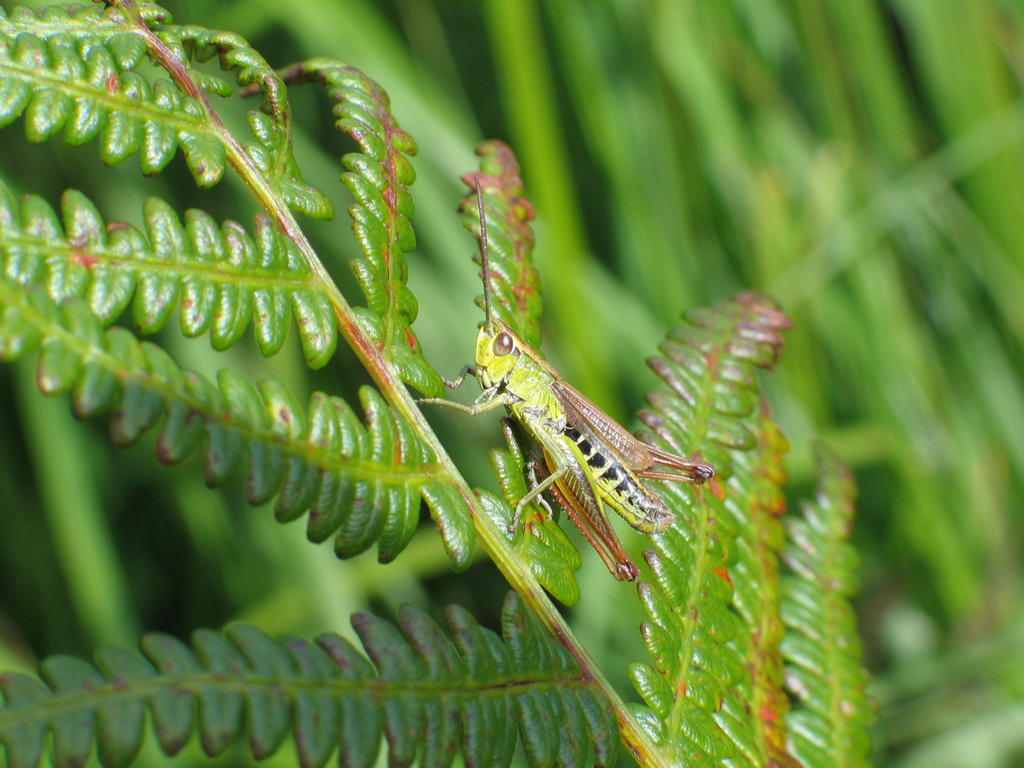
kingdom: Animalia
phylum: Arthropoda
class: Insecta
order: Orthoptera
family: Acrididae
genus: Pseudochorthippus
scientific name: Pseudochorthippus parallelus
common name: Meadow grasshopper
